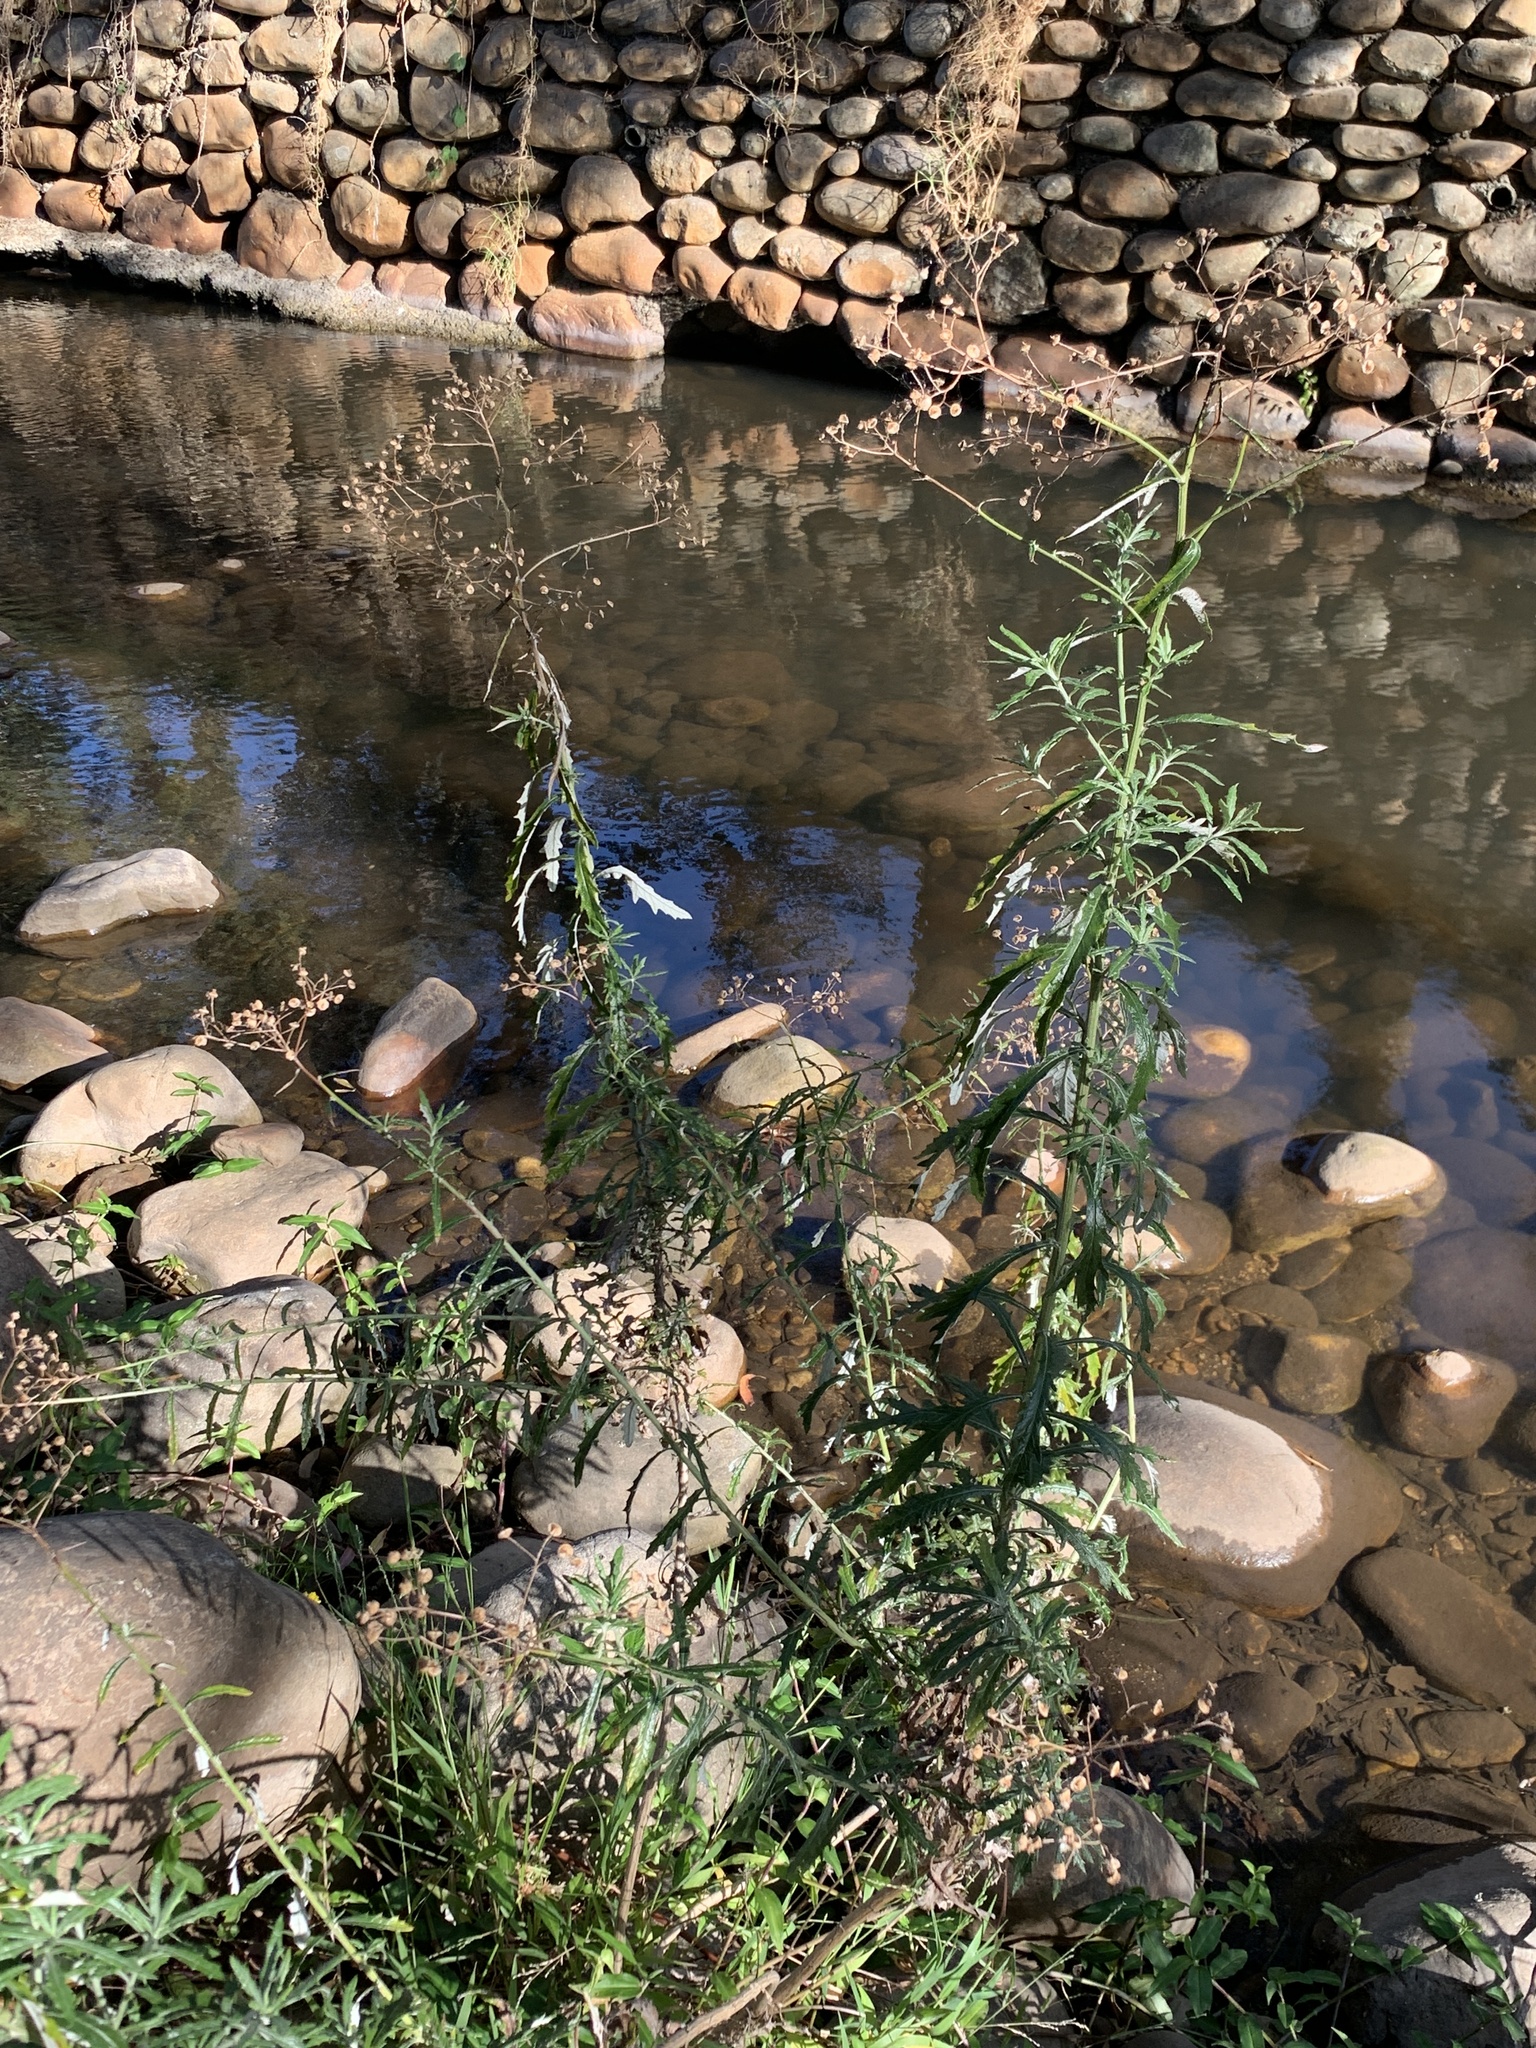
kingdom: Plantae
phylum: Tracheophyta
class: Magnoliopsida
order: Asterales
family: Asteraceae
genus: Senecio
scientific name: Senecio pterophorus
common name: Shoddy ragwort
